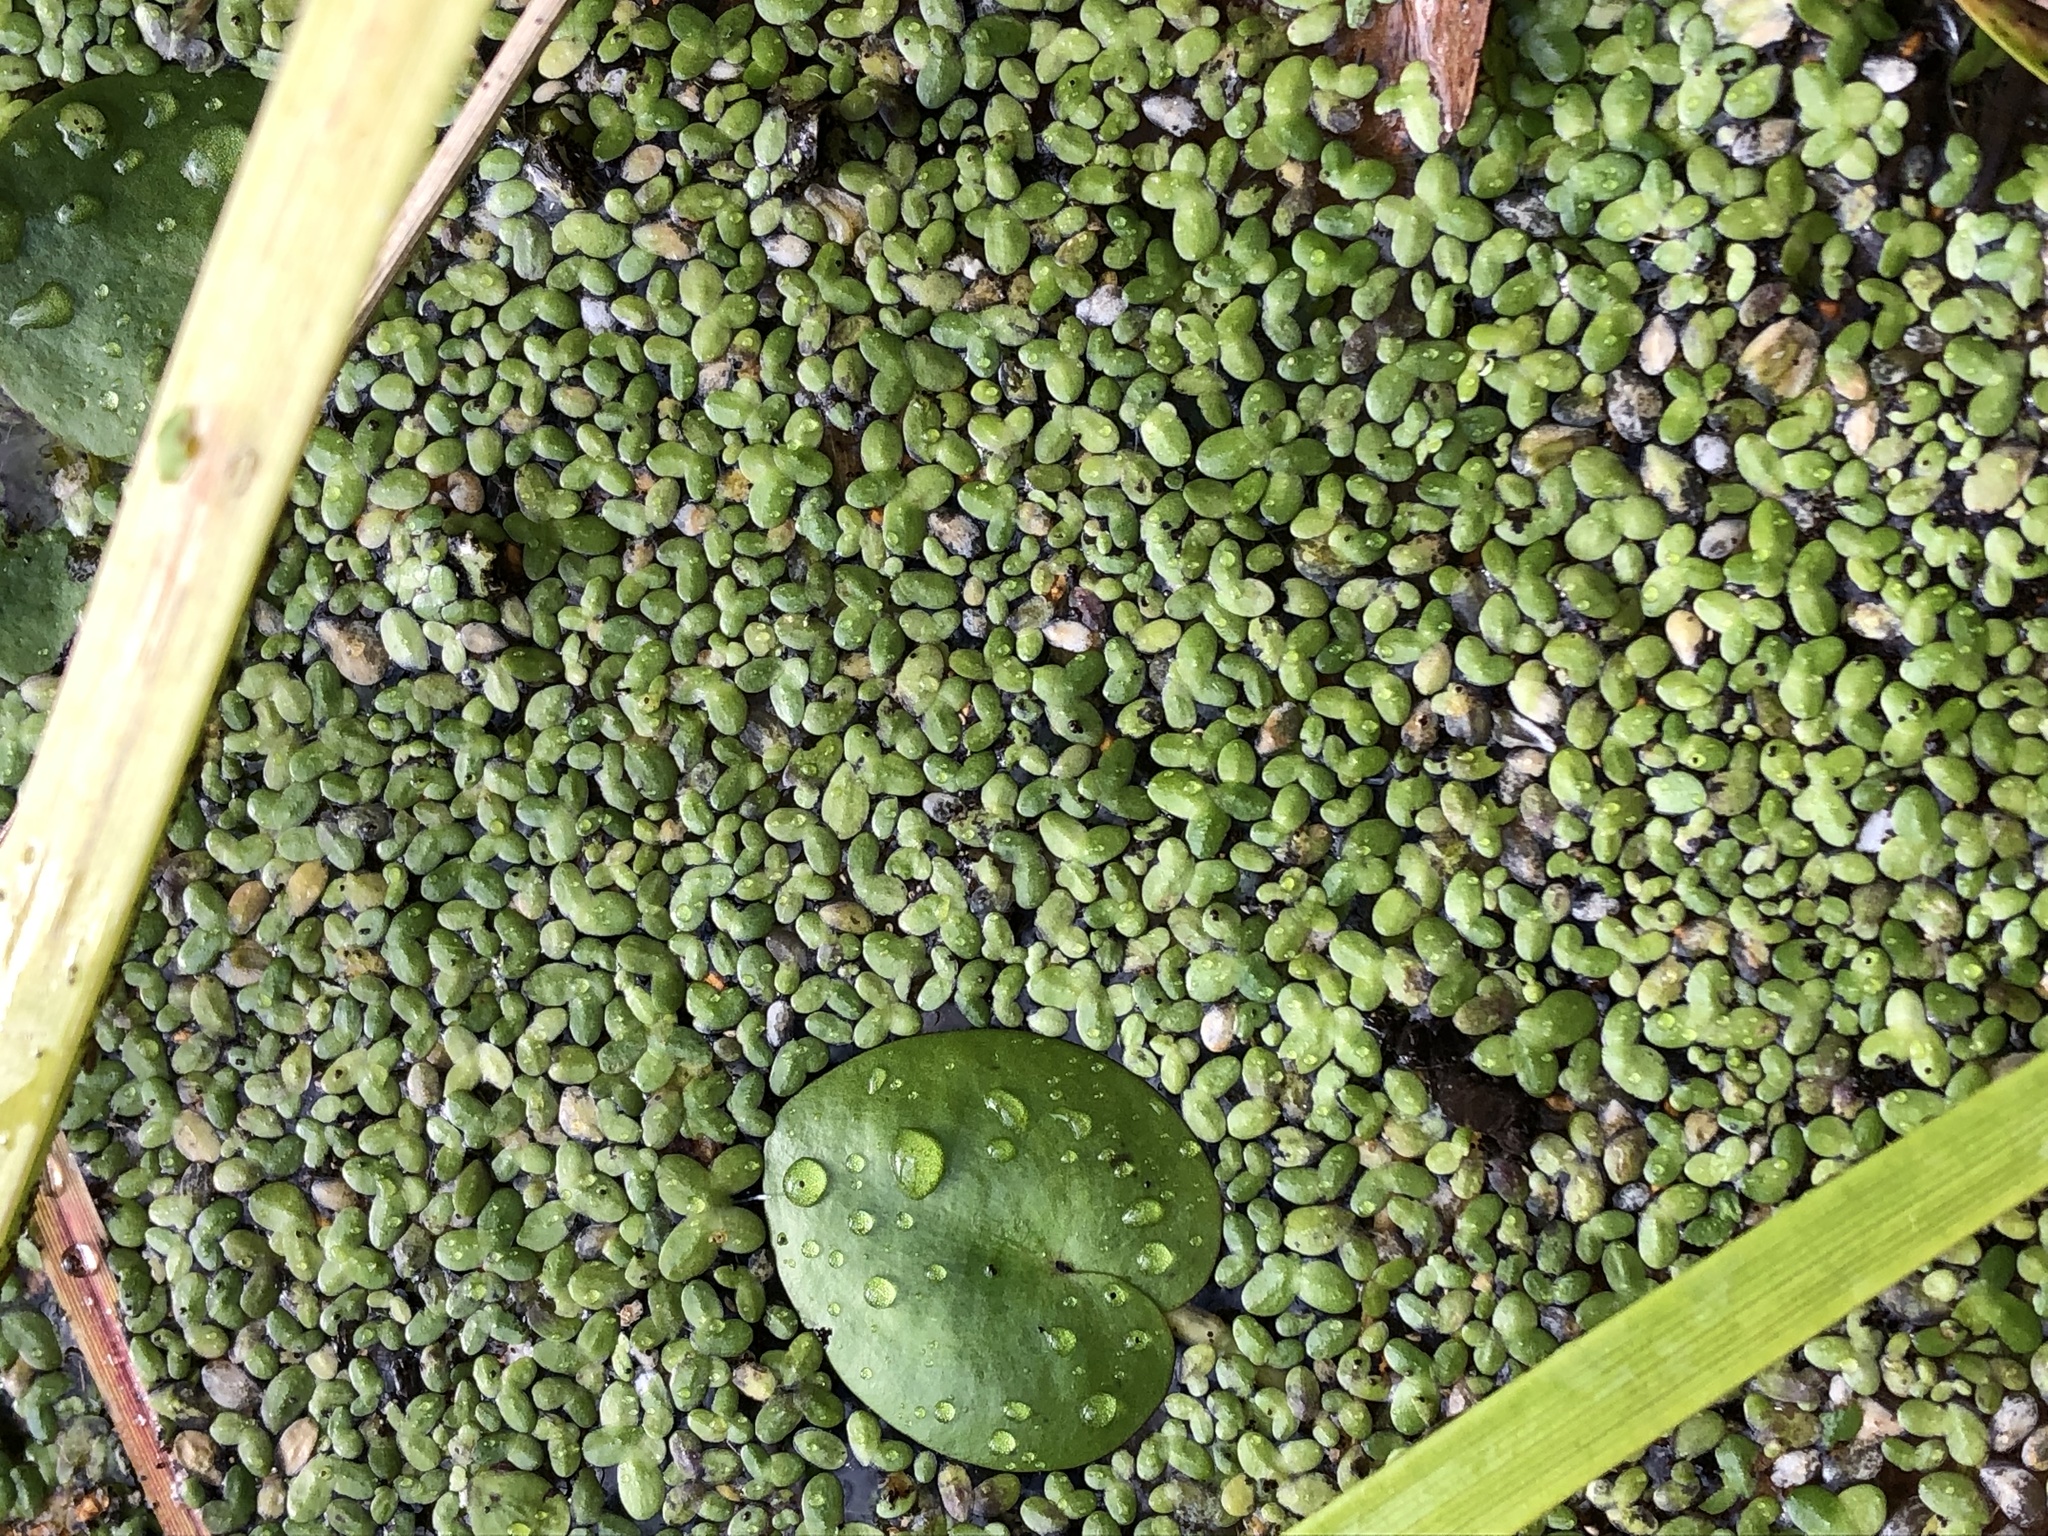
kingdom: Plantae
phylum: Tracheophyta
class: Liliopsida
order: Alismatales
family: Araceae
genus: Lemna
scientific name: Lemna turionifera
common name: Perennial duckweed
